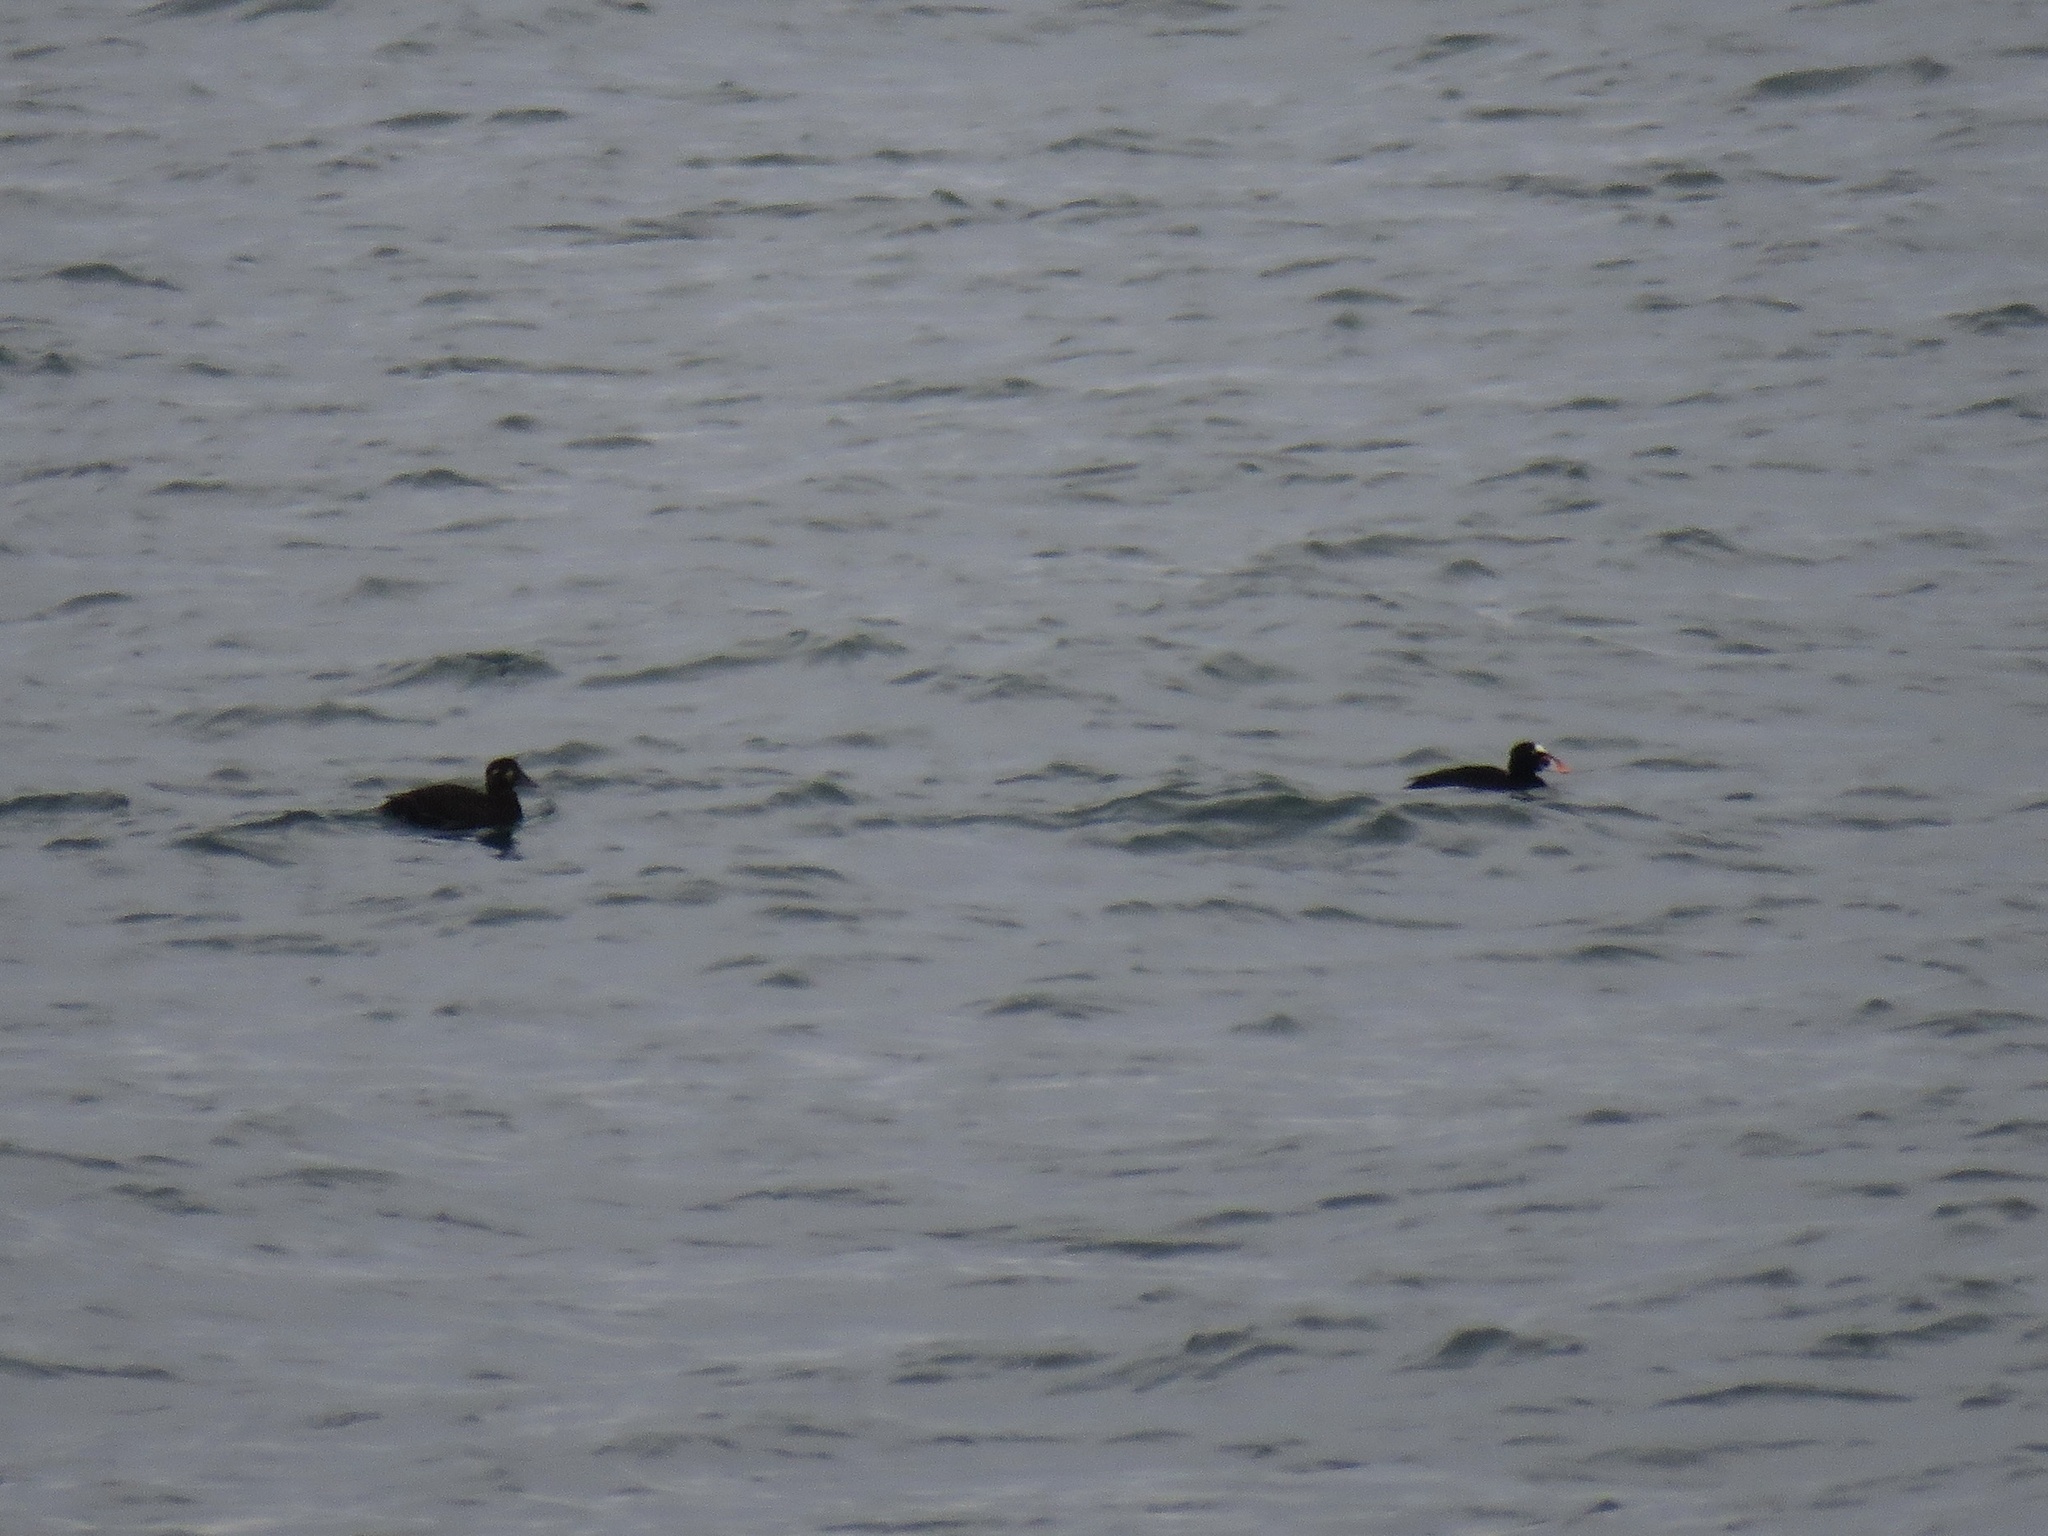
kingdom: Animalia
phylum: Chordata
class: Aves
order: Anseriformes
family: Anatidae
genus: Melanitta
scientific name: Melanitta perspicillata
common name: Surf scoter
